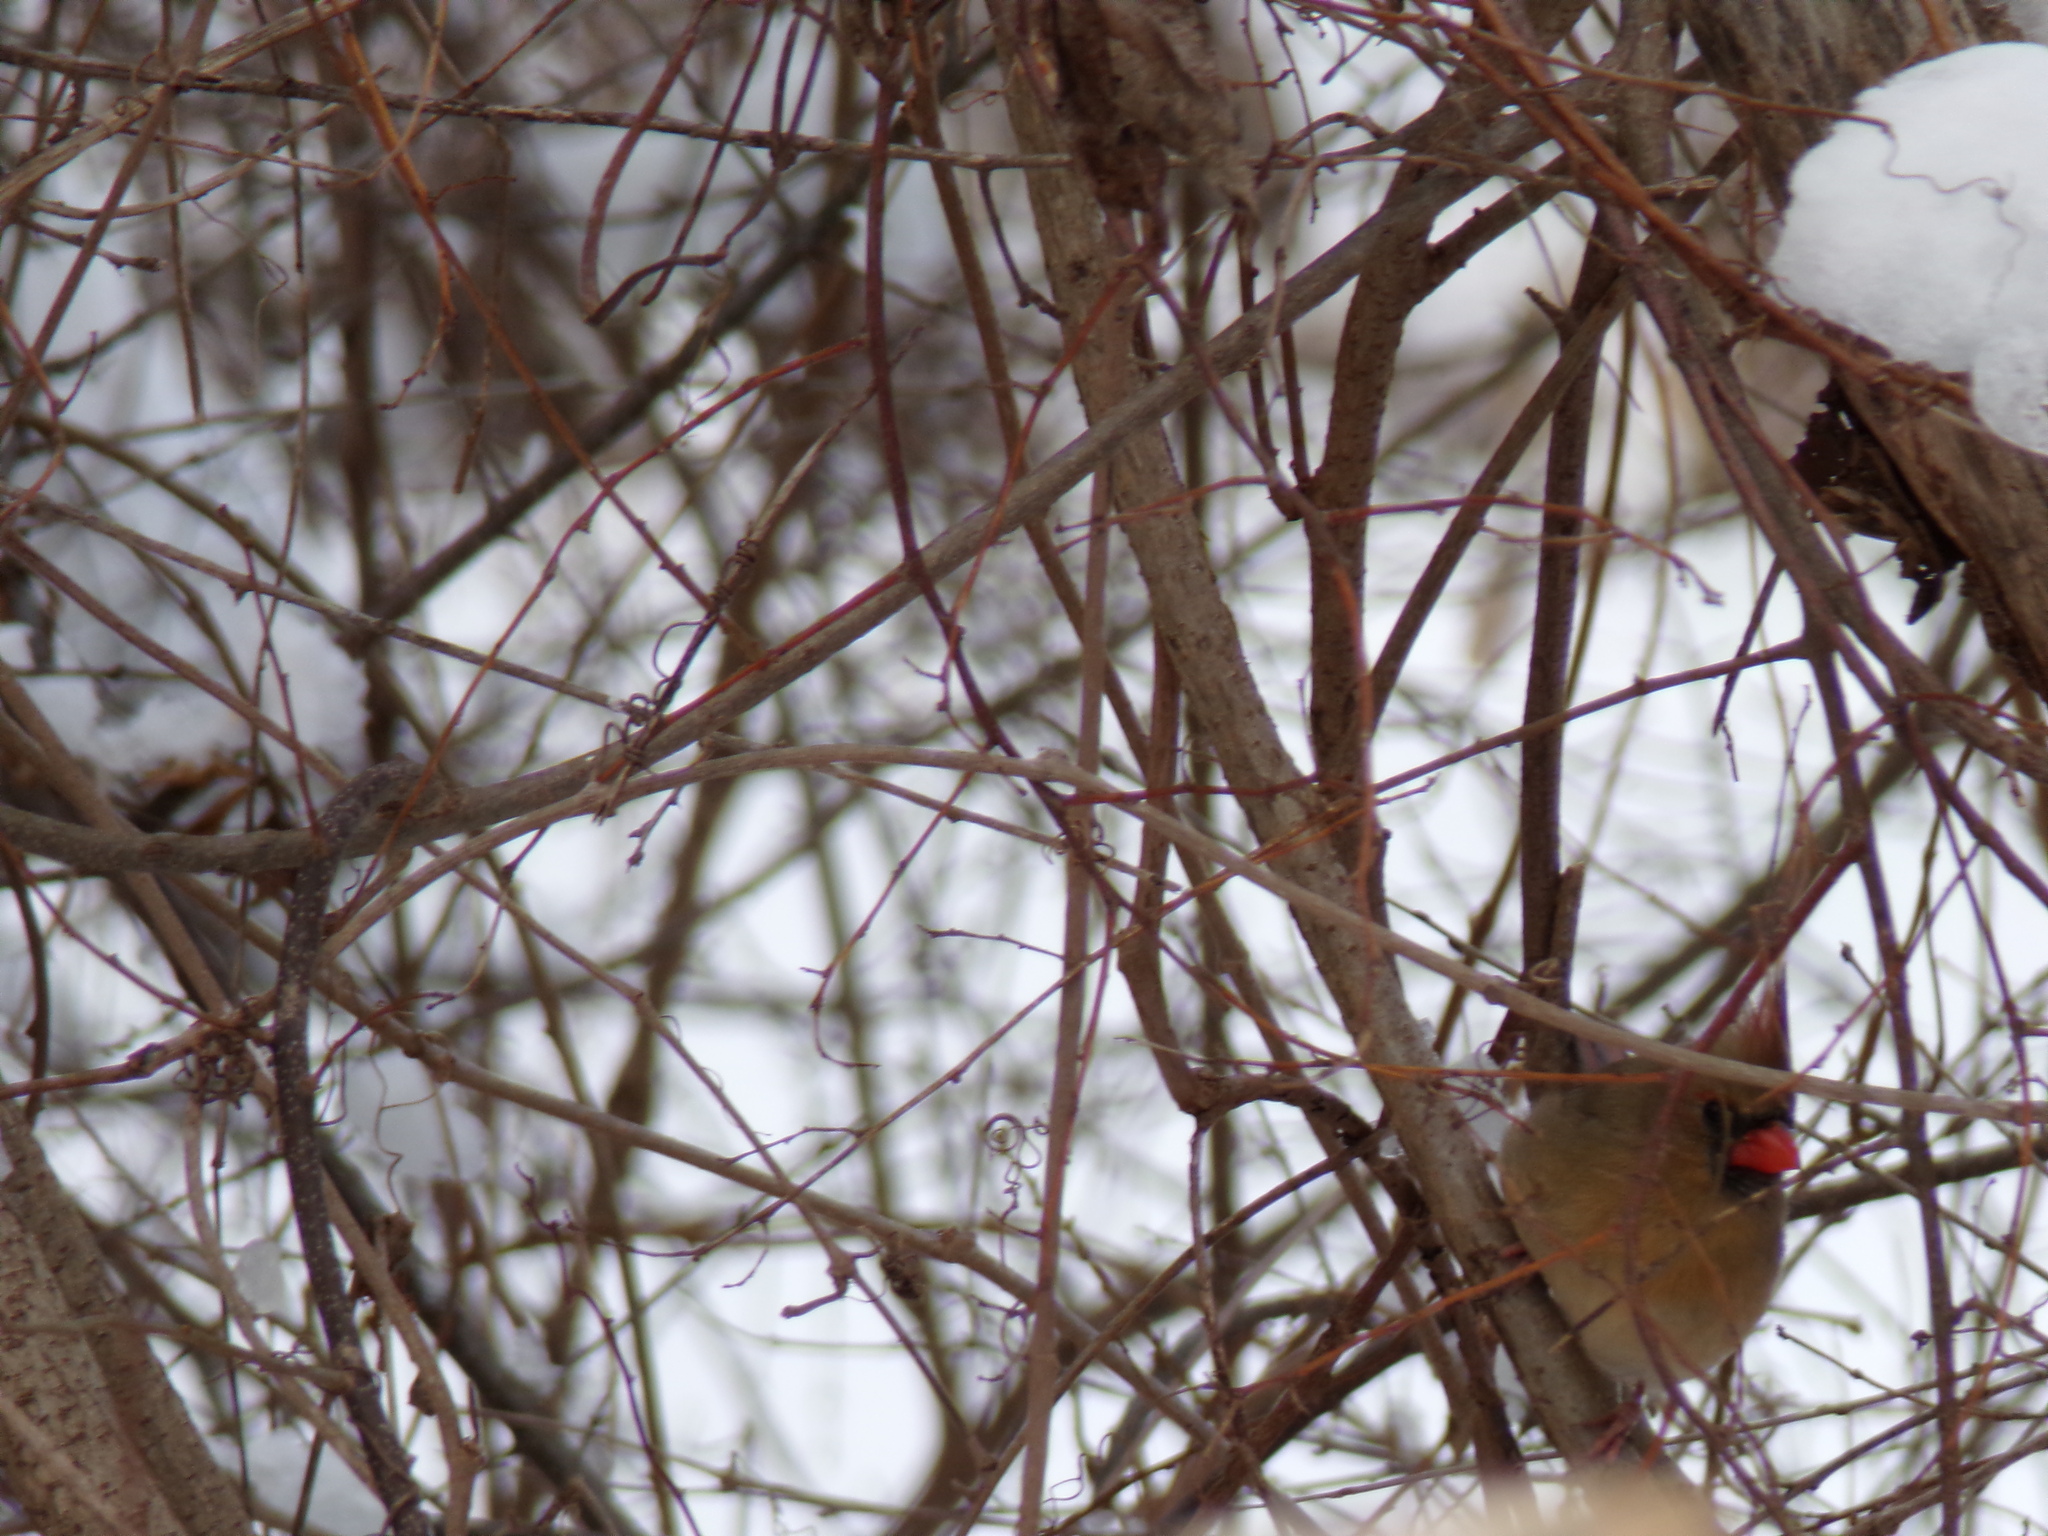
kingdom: Animalia
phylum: Chordata
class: Aves
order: Passeriformes
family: Cardinalidae
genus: Cardinalis
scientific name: Cardinalis cardinalis
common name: Northern cardinal
